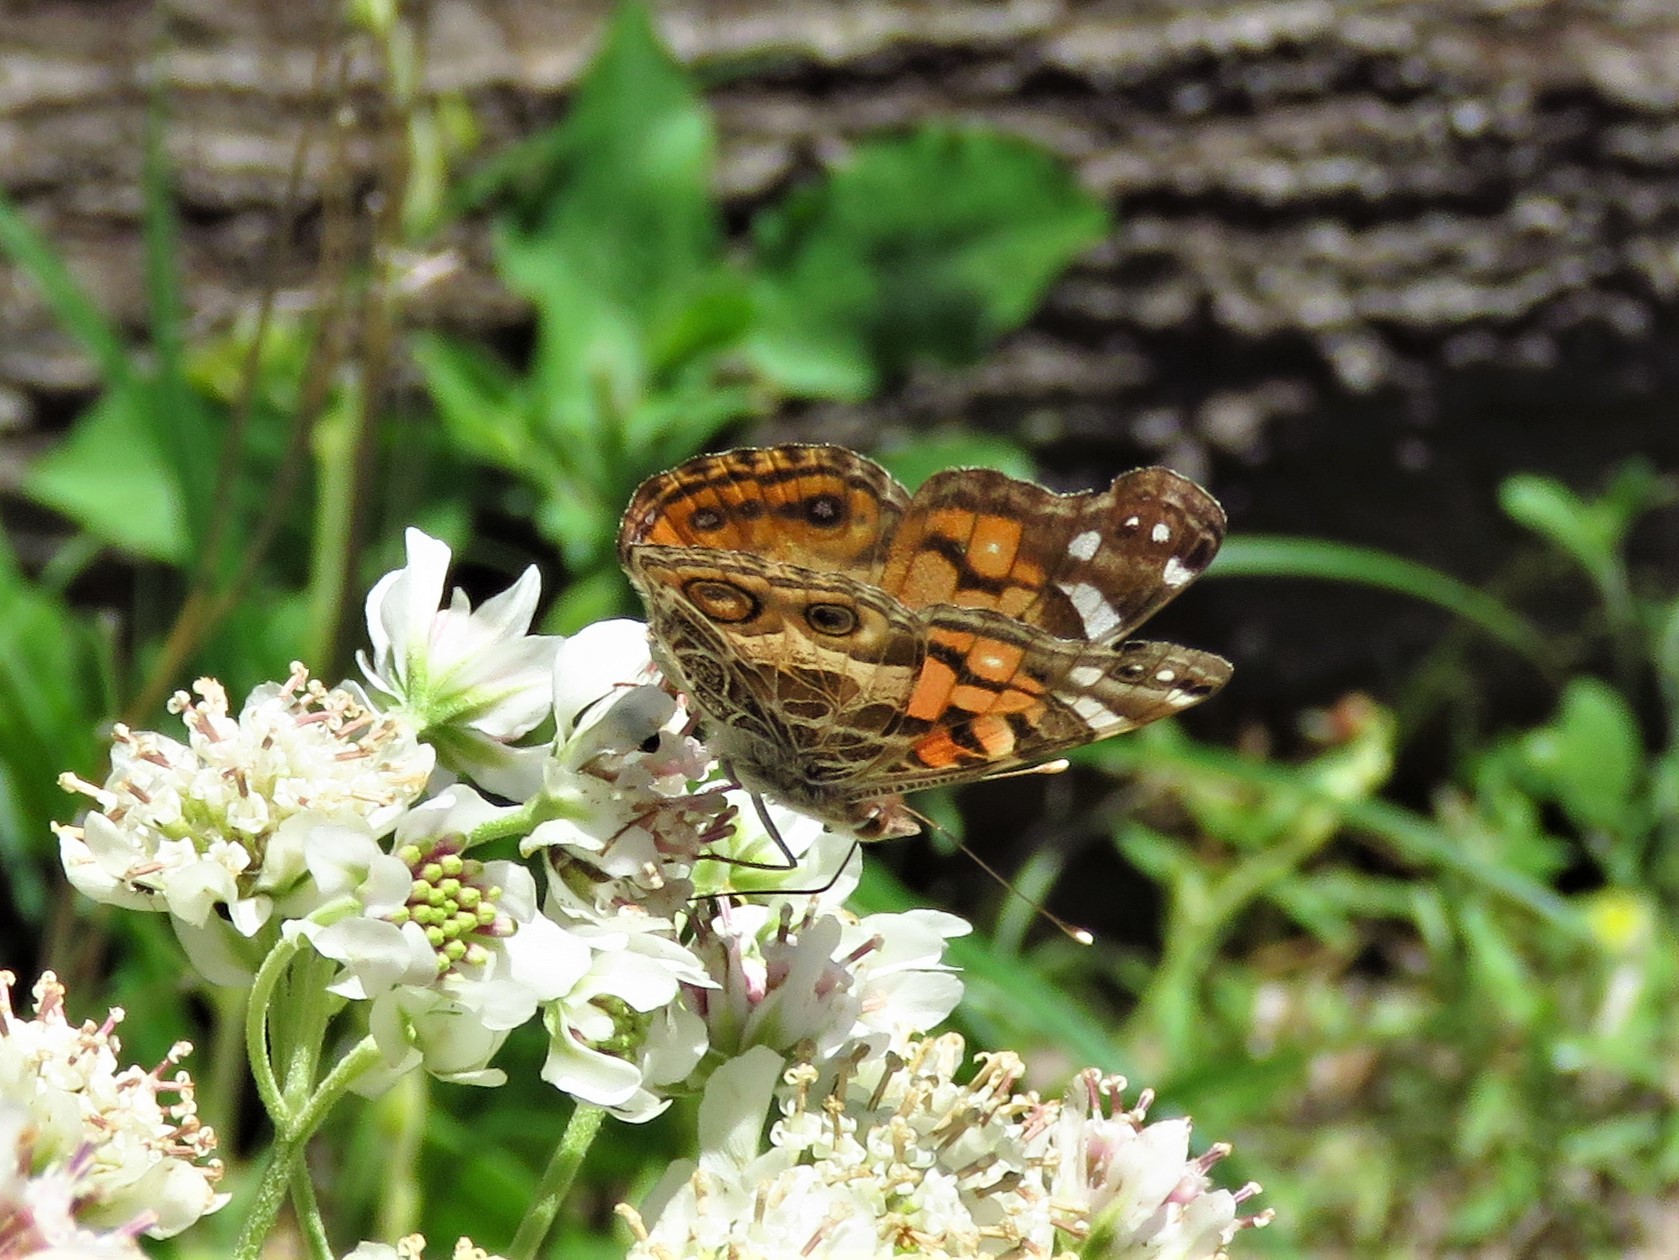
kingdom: Animalia
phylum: Arthropoda
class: Insecta
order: Lepidoptera
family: Nymphalidae
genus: Vanessa
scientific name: Vanessa virginiensis
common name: American lady
